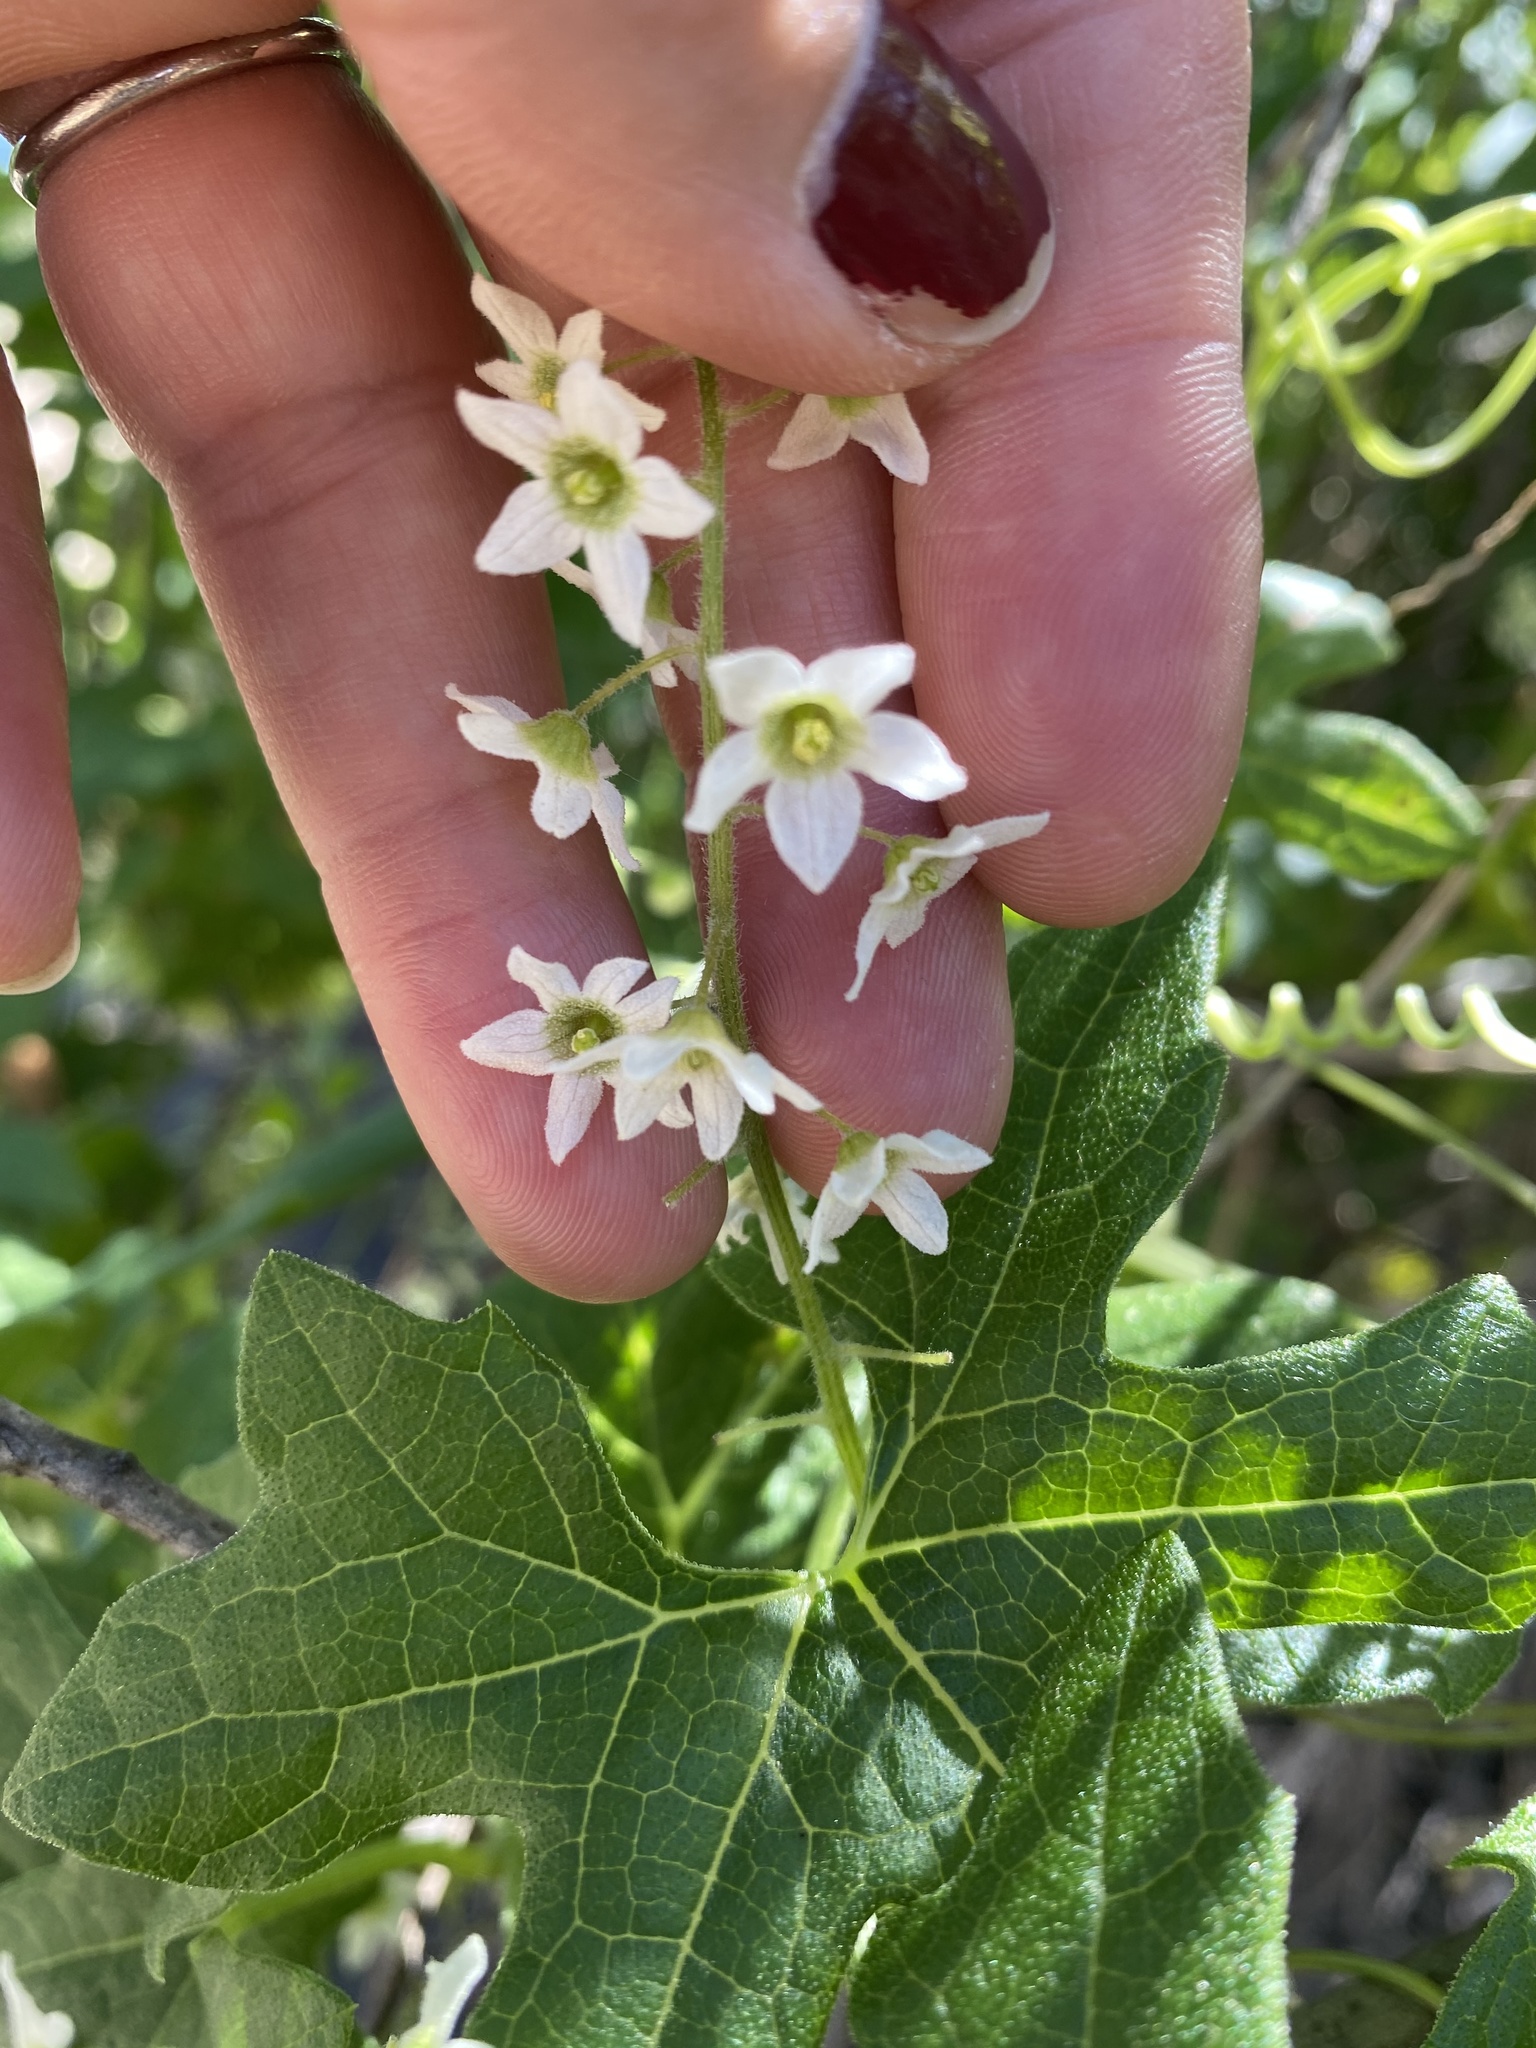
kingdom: Plantae
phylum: Tracheophyta
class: Magnoliopsida
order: Cucurbitales
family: Cucurbitaceae
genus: Marah
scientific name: Marah macrocarpa
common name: Cucamonga manroot
